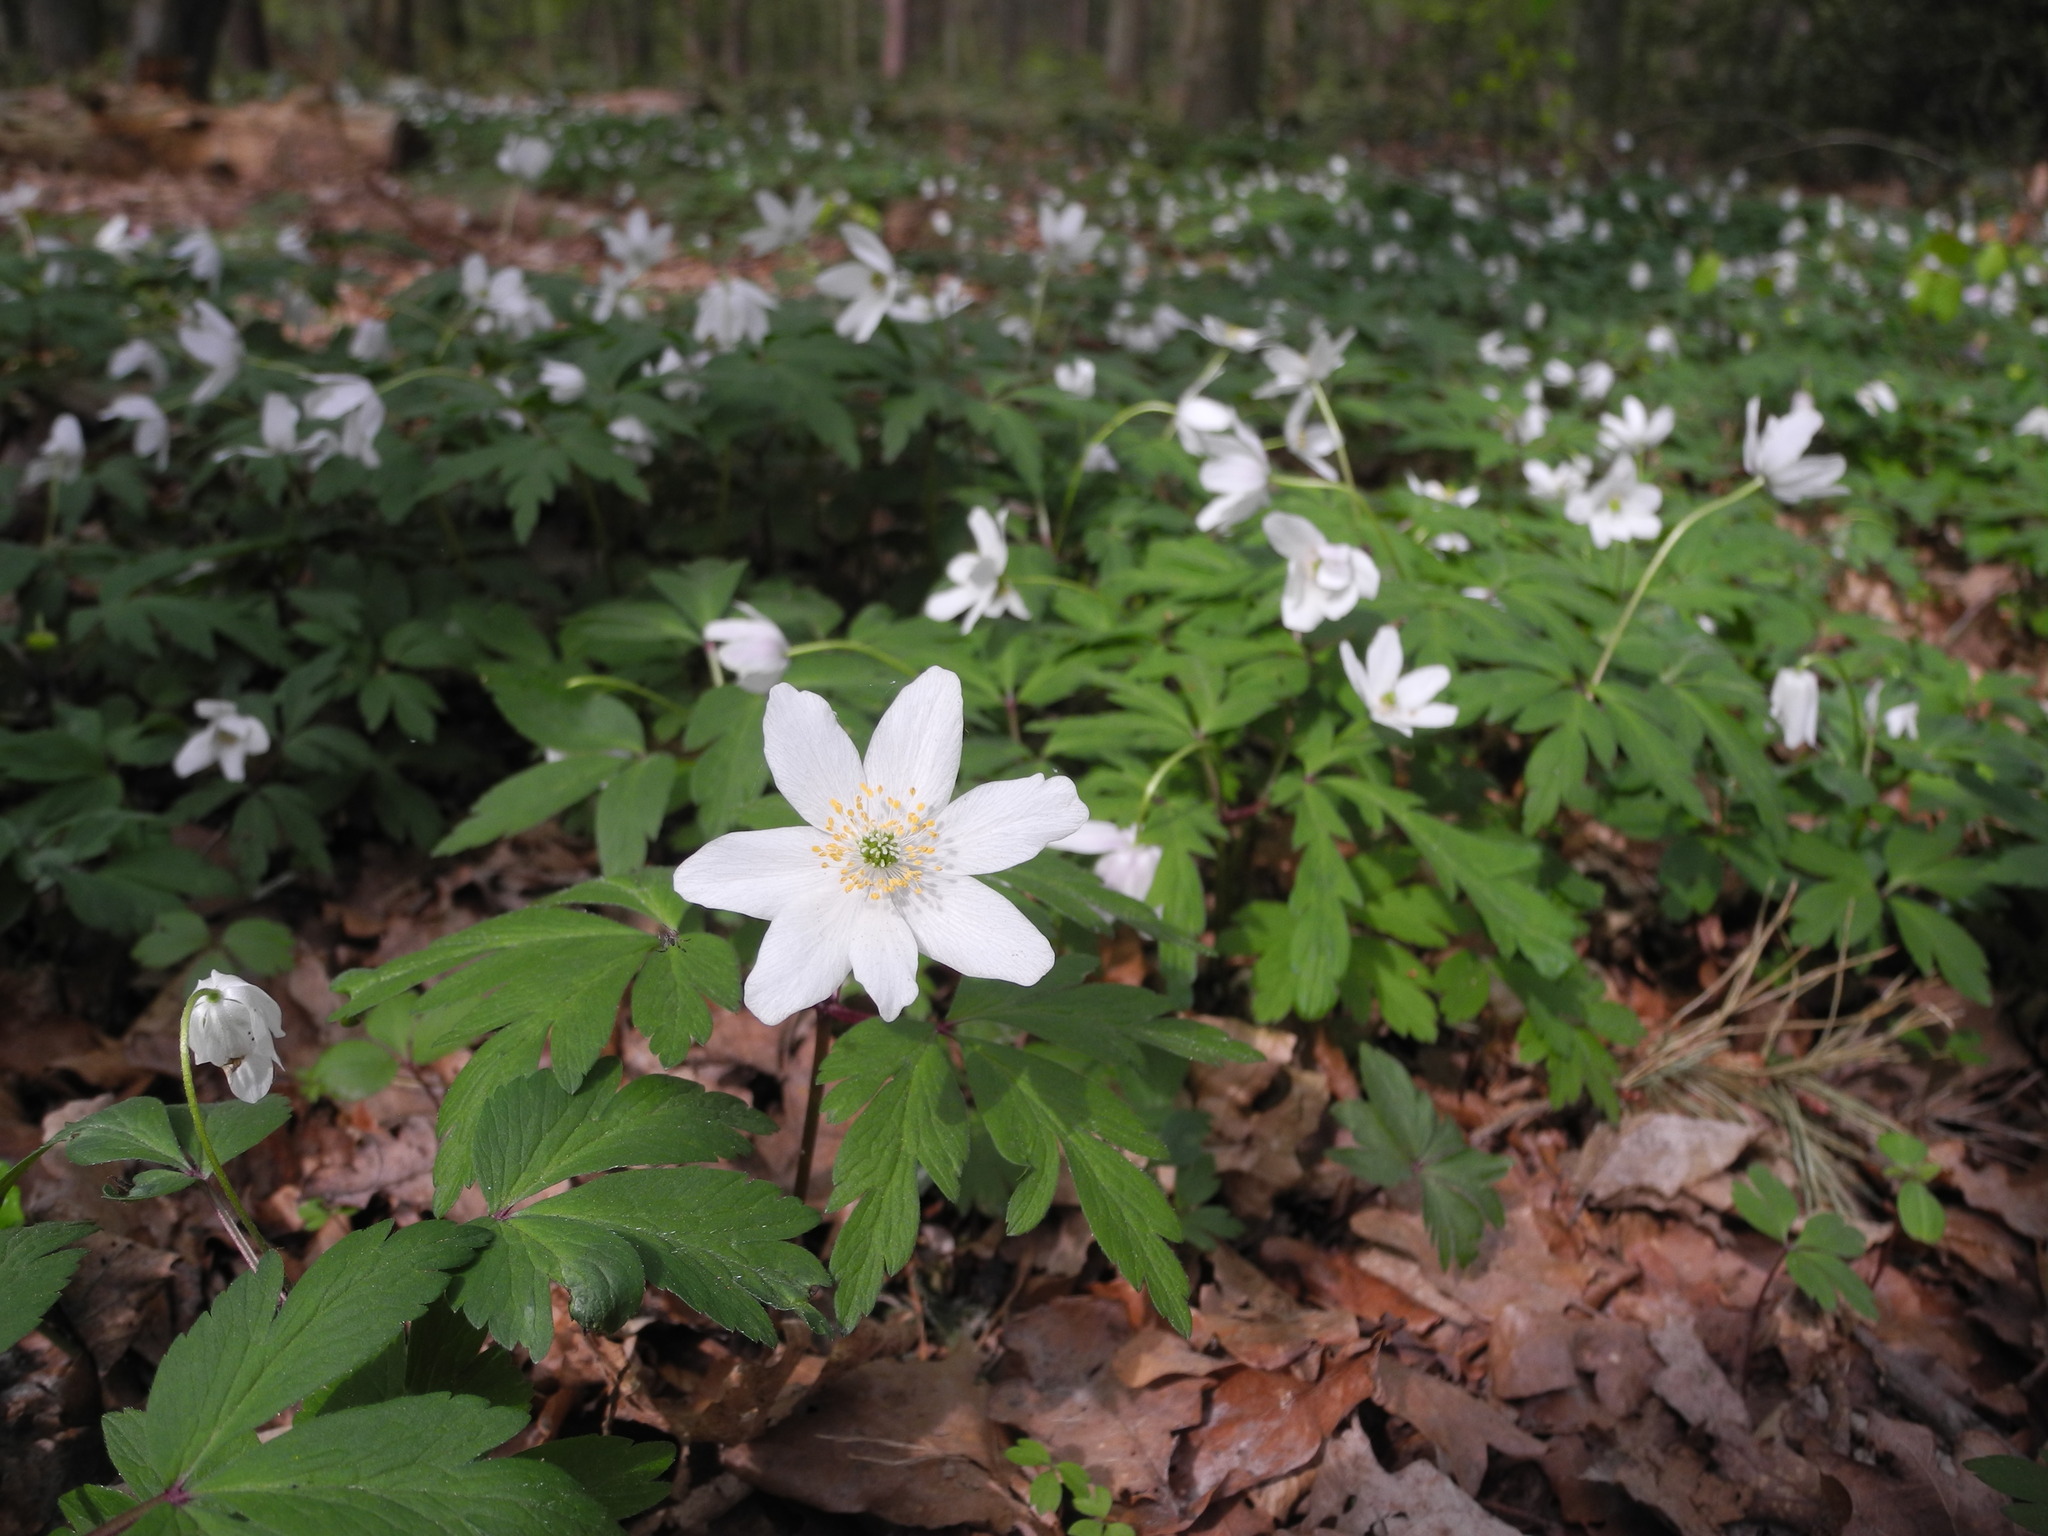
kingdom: Plantae
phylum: Tracheophyta
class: Magnoliopsida
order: Ranunculales
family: Ranunculaceae
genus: Anemone
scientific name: Anemone nemorosa
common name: Wood anemone
